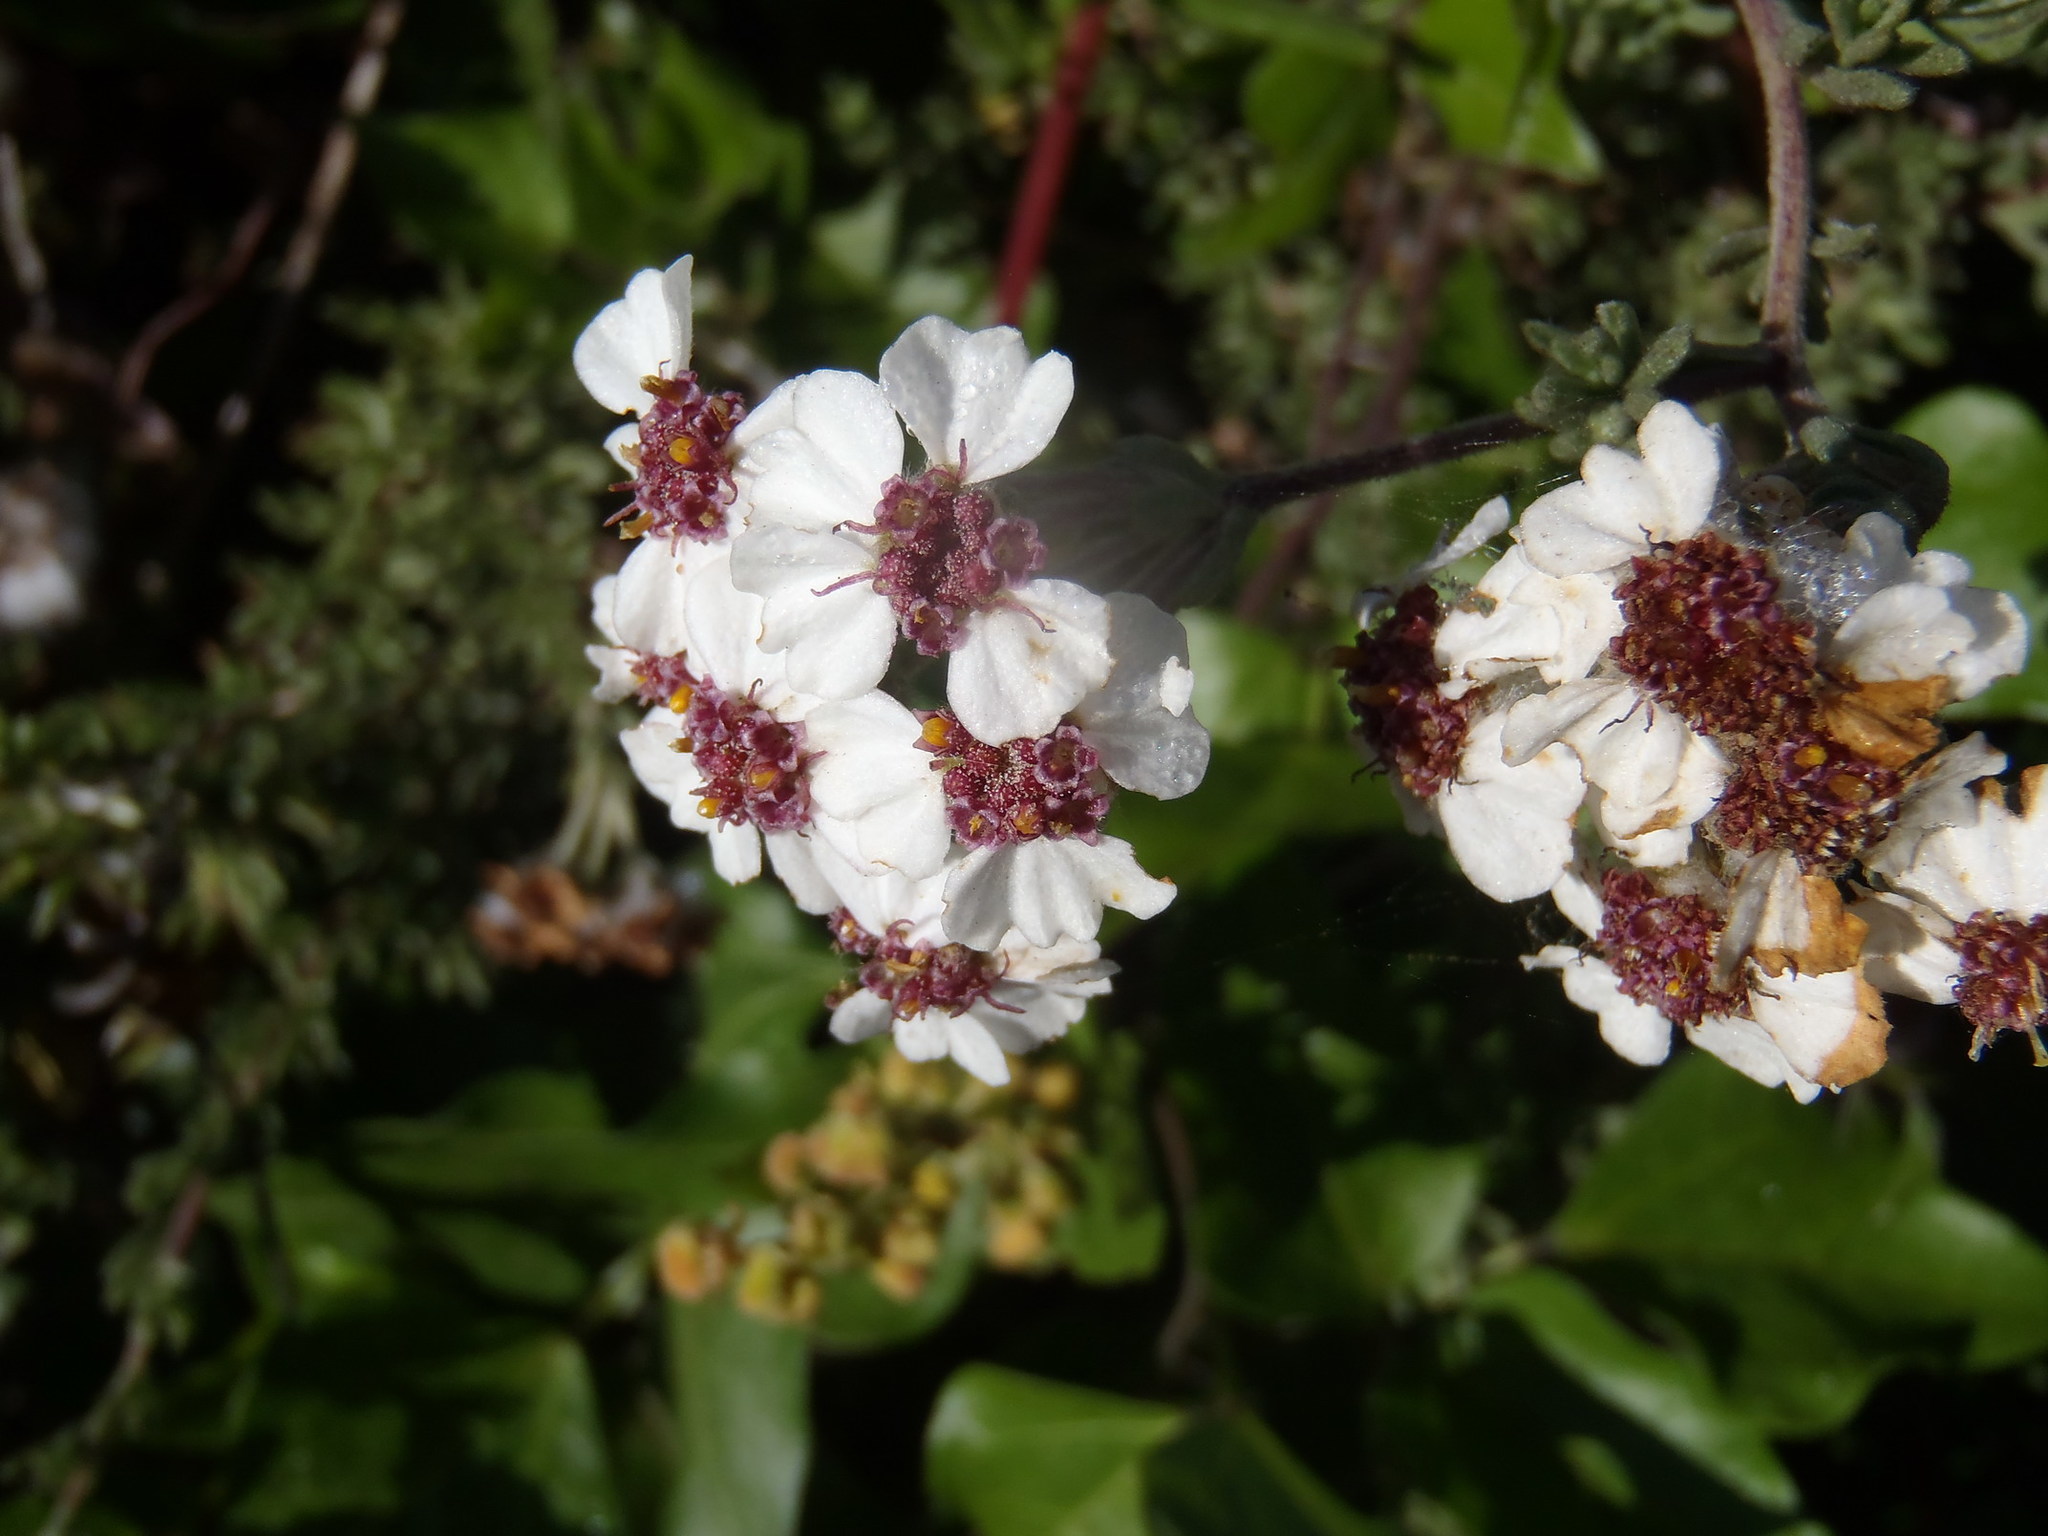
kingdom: Plantae
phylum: Tracheophyta
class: Magnoliopsida
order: Asterales
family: Asteraceae
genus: Eriocephalus
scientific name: Eriocephalus africanus
